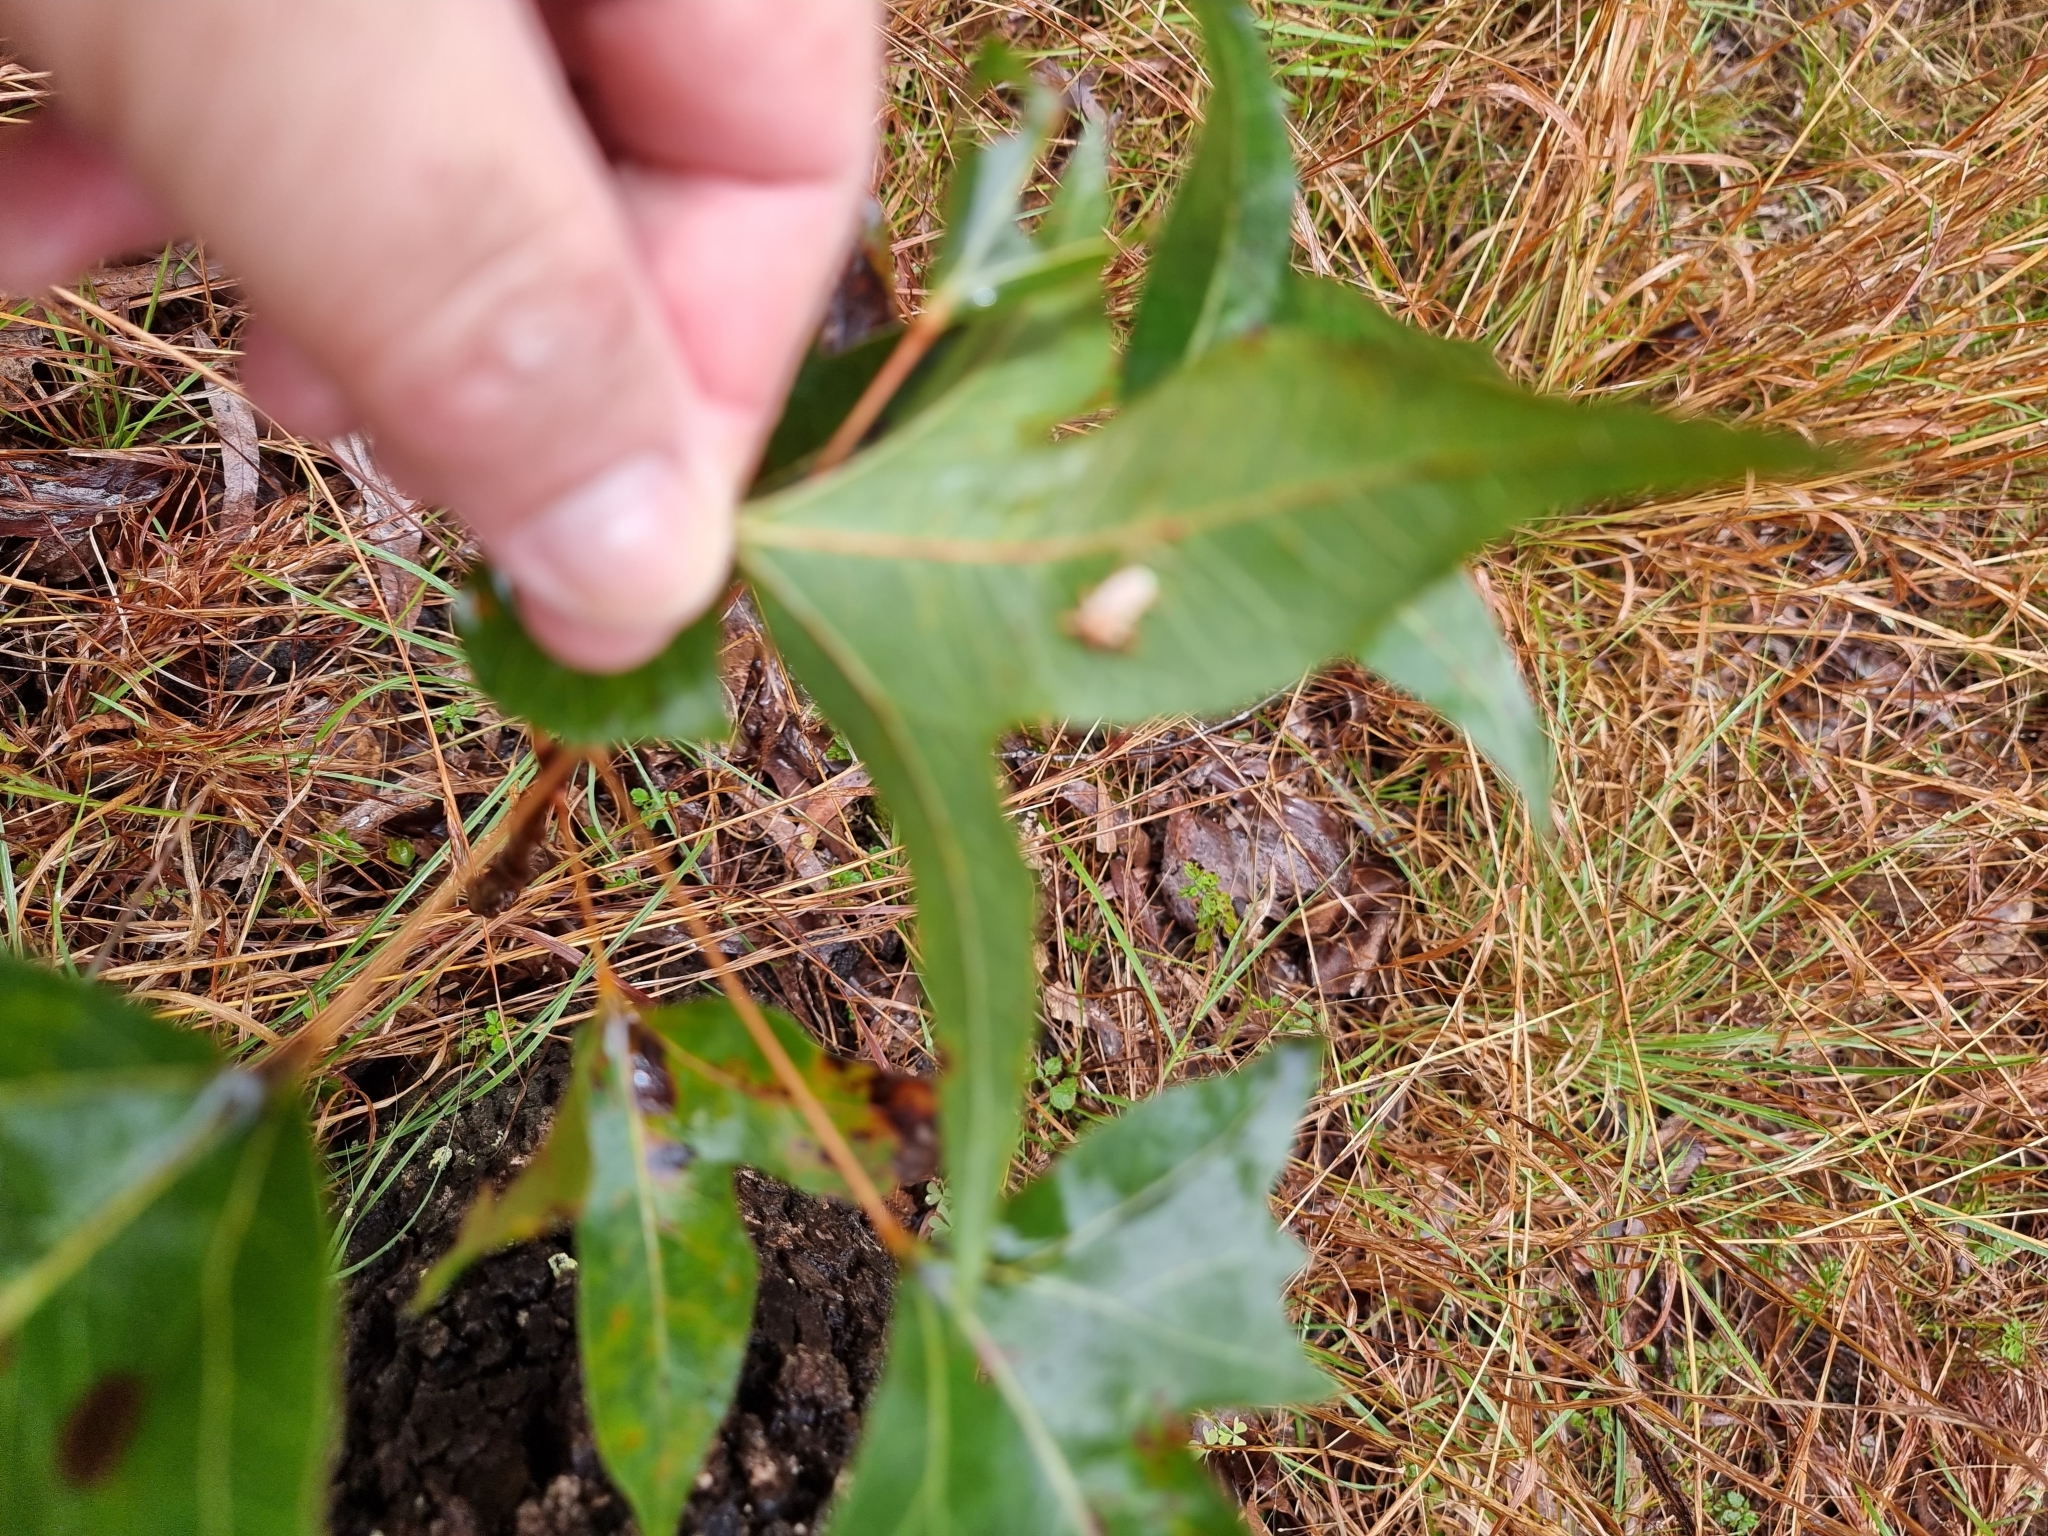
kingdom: Plantae
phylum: Tracheophyta
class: Magnoliopsida
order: Malvales
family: Malvaceae
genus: Brachychiton
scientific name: Brachychiton populneus
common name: Kurrajong
